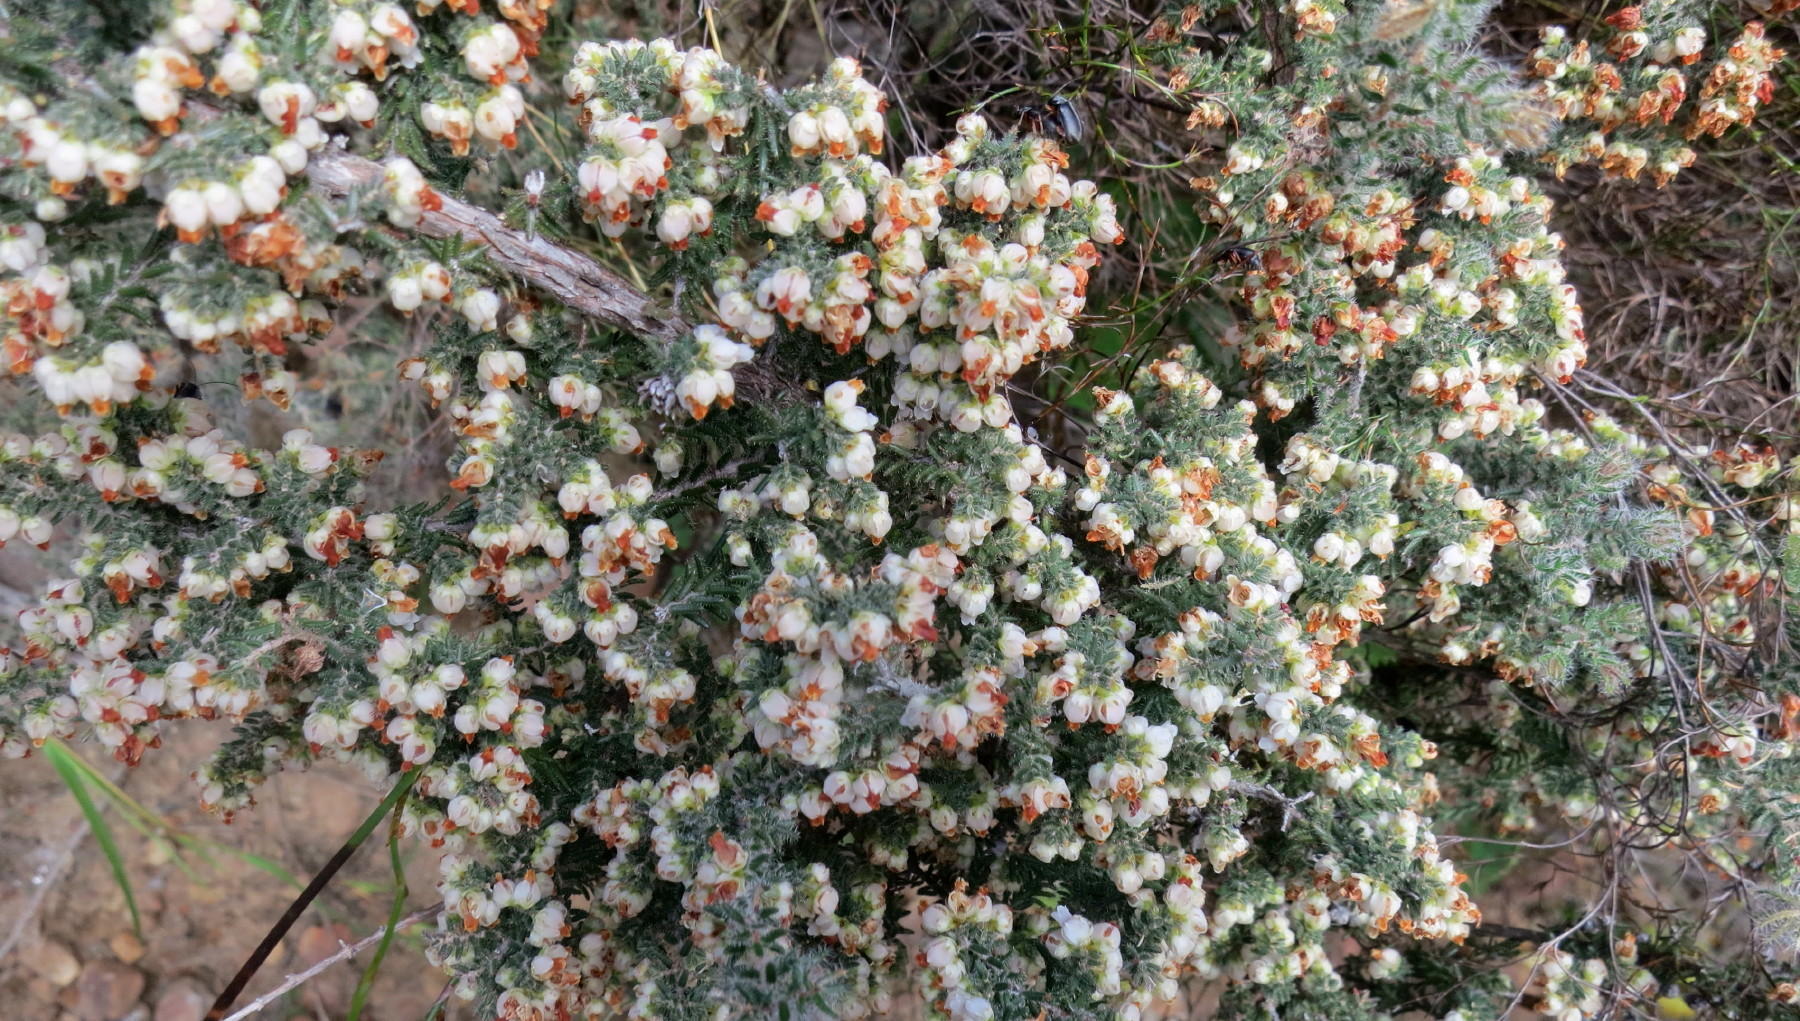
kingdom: Plantae
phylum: Tracheophyta
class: Magnoliopsida
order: Ericales
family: Ericaceae
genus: Erica
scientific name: Erica totta
